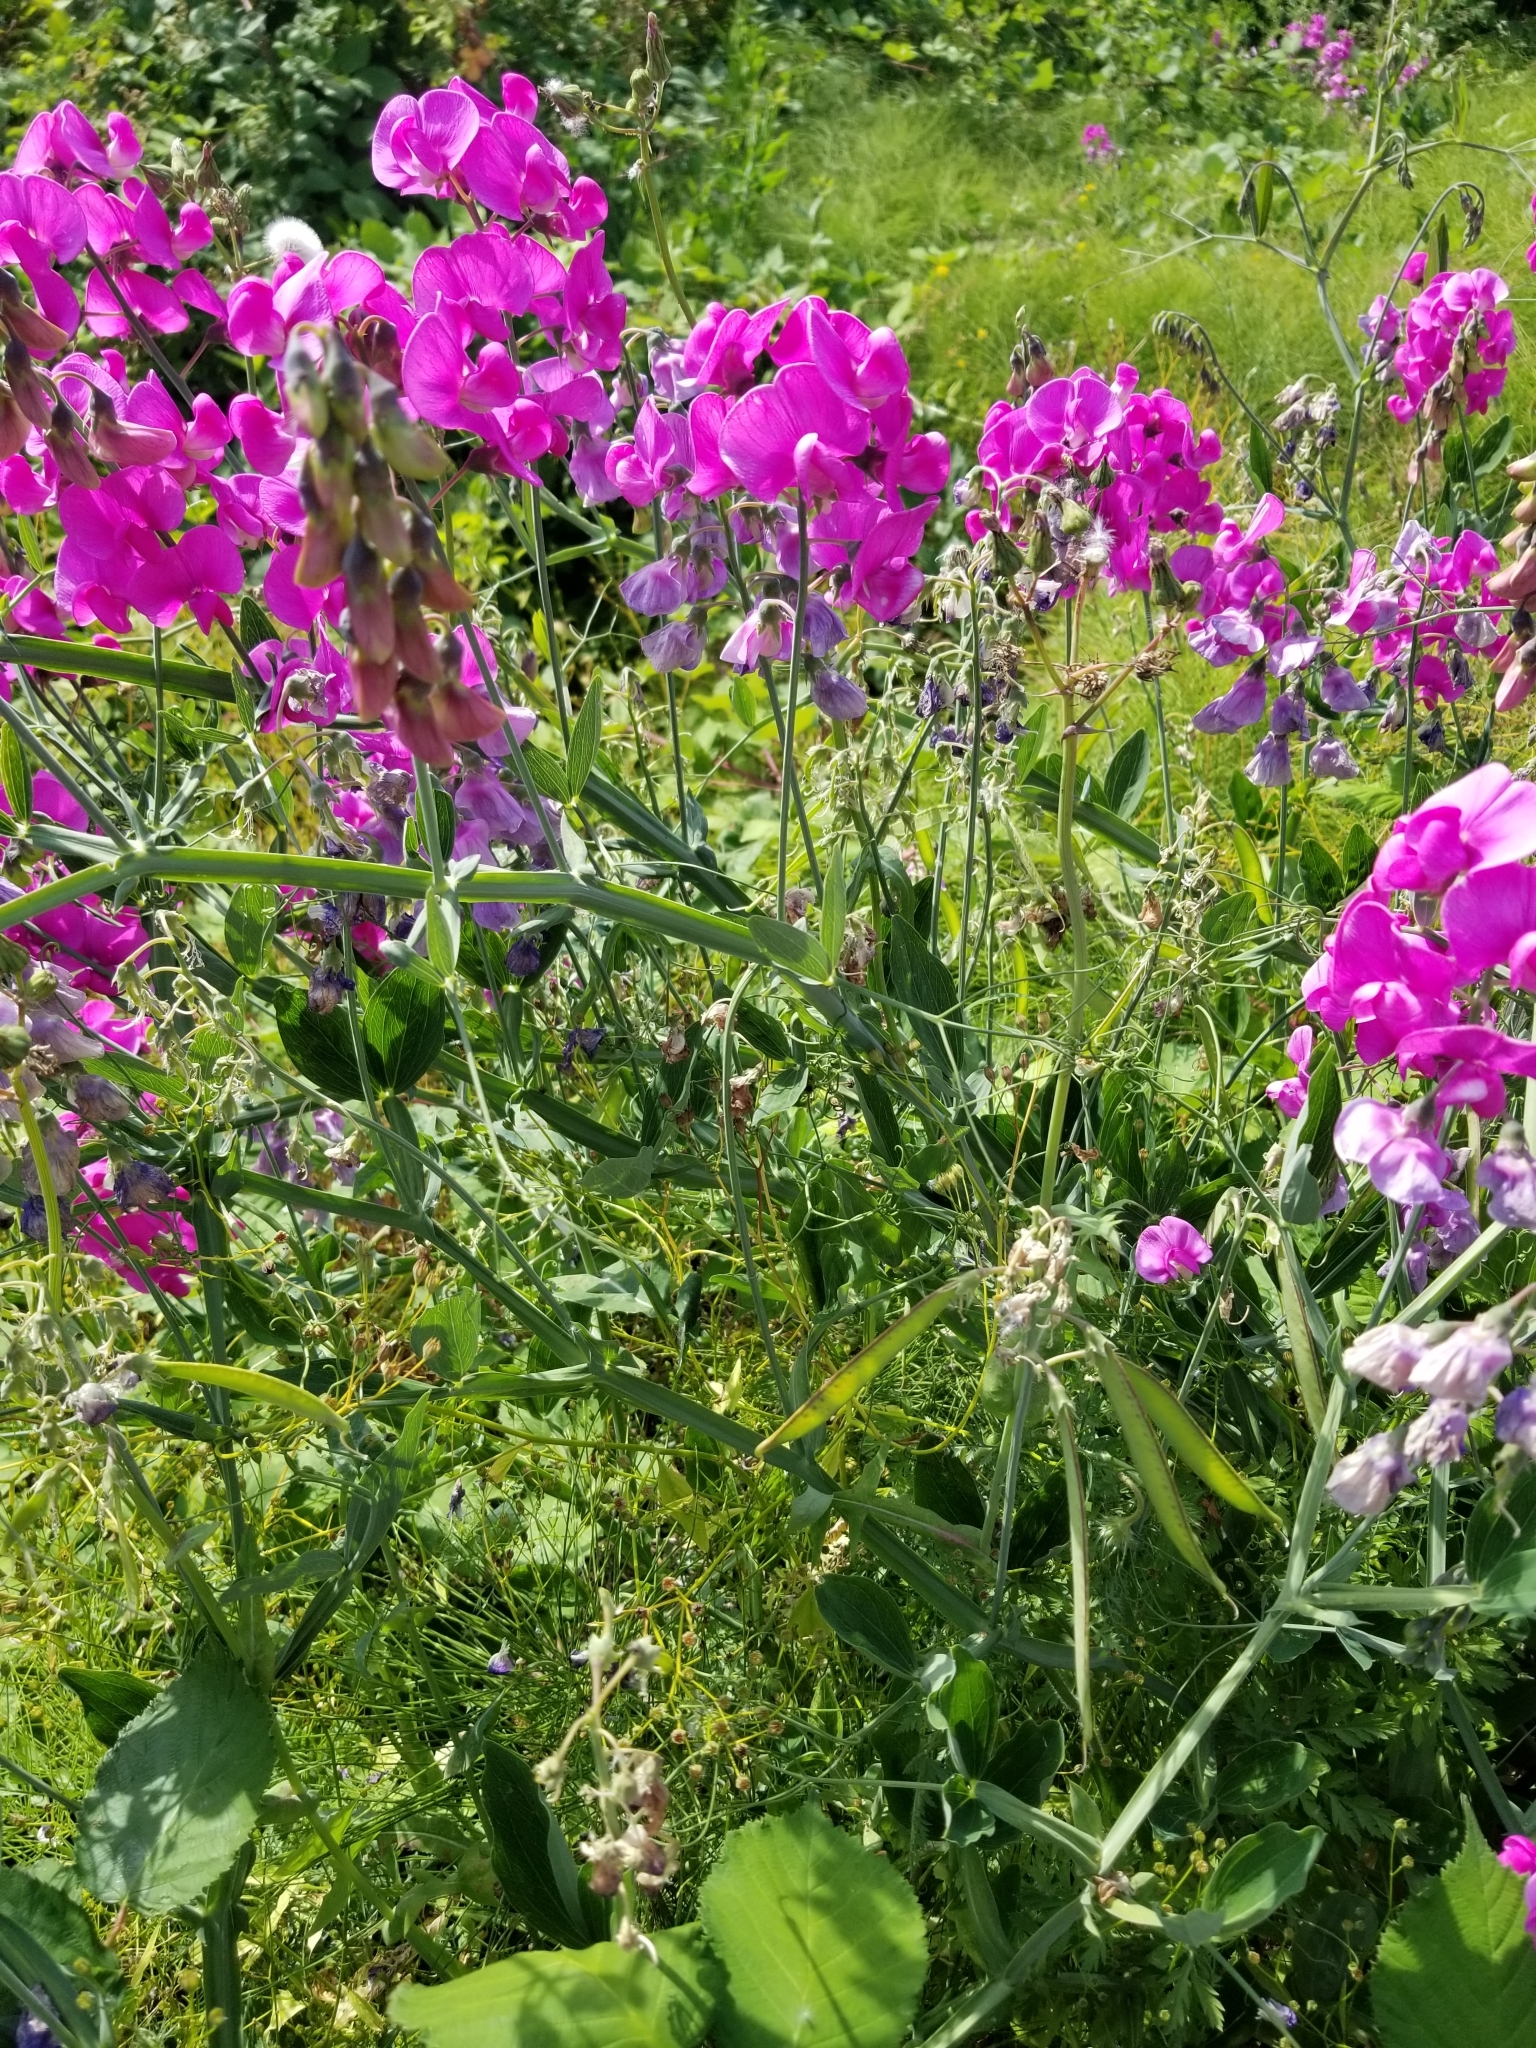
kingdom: Plantae
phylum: Tracheophyta
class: Magnoliopsida
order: Fabales
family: Fabaceae
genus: Lathyrus
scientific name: Lathyrus latifolius
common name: Perennial pea
